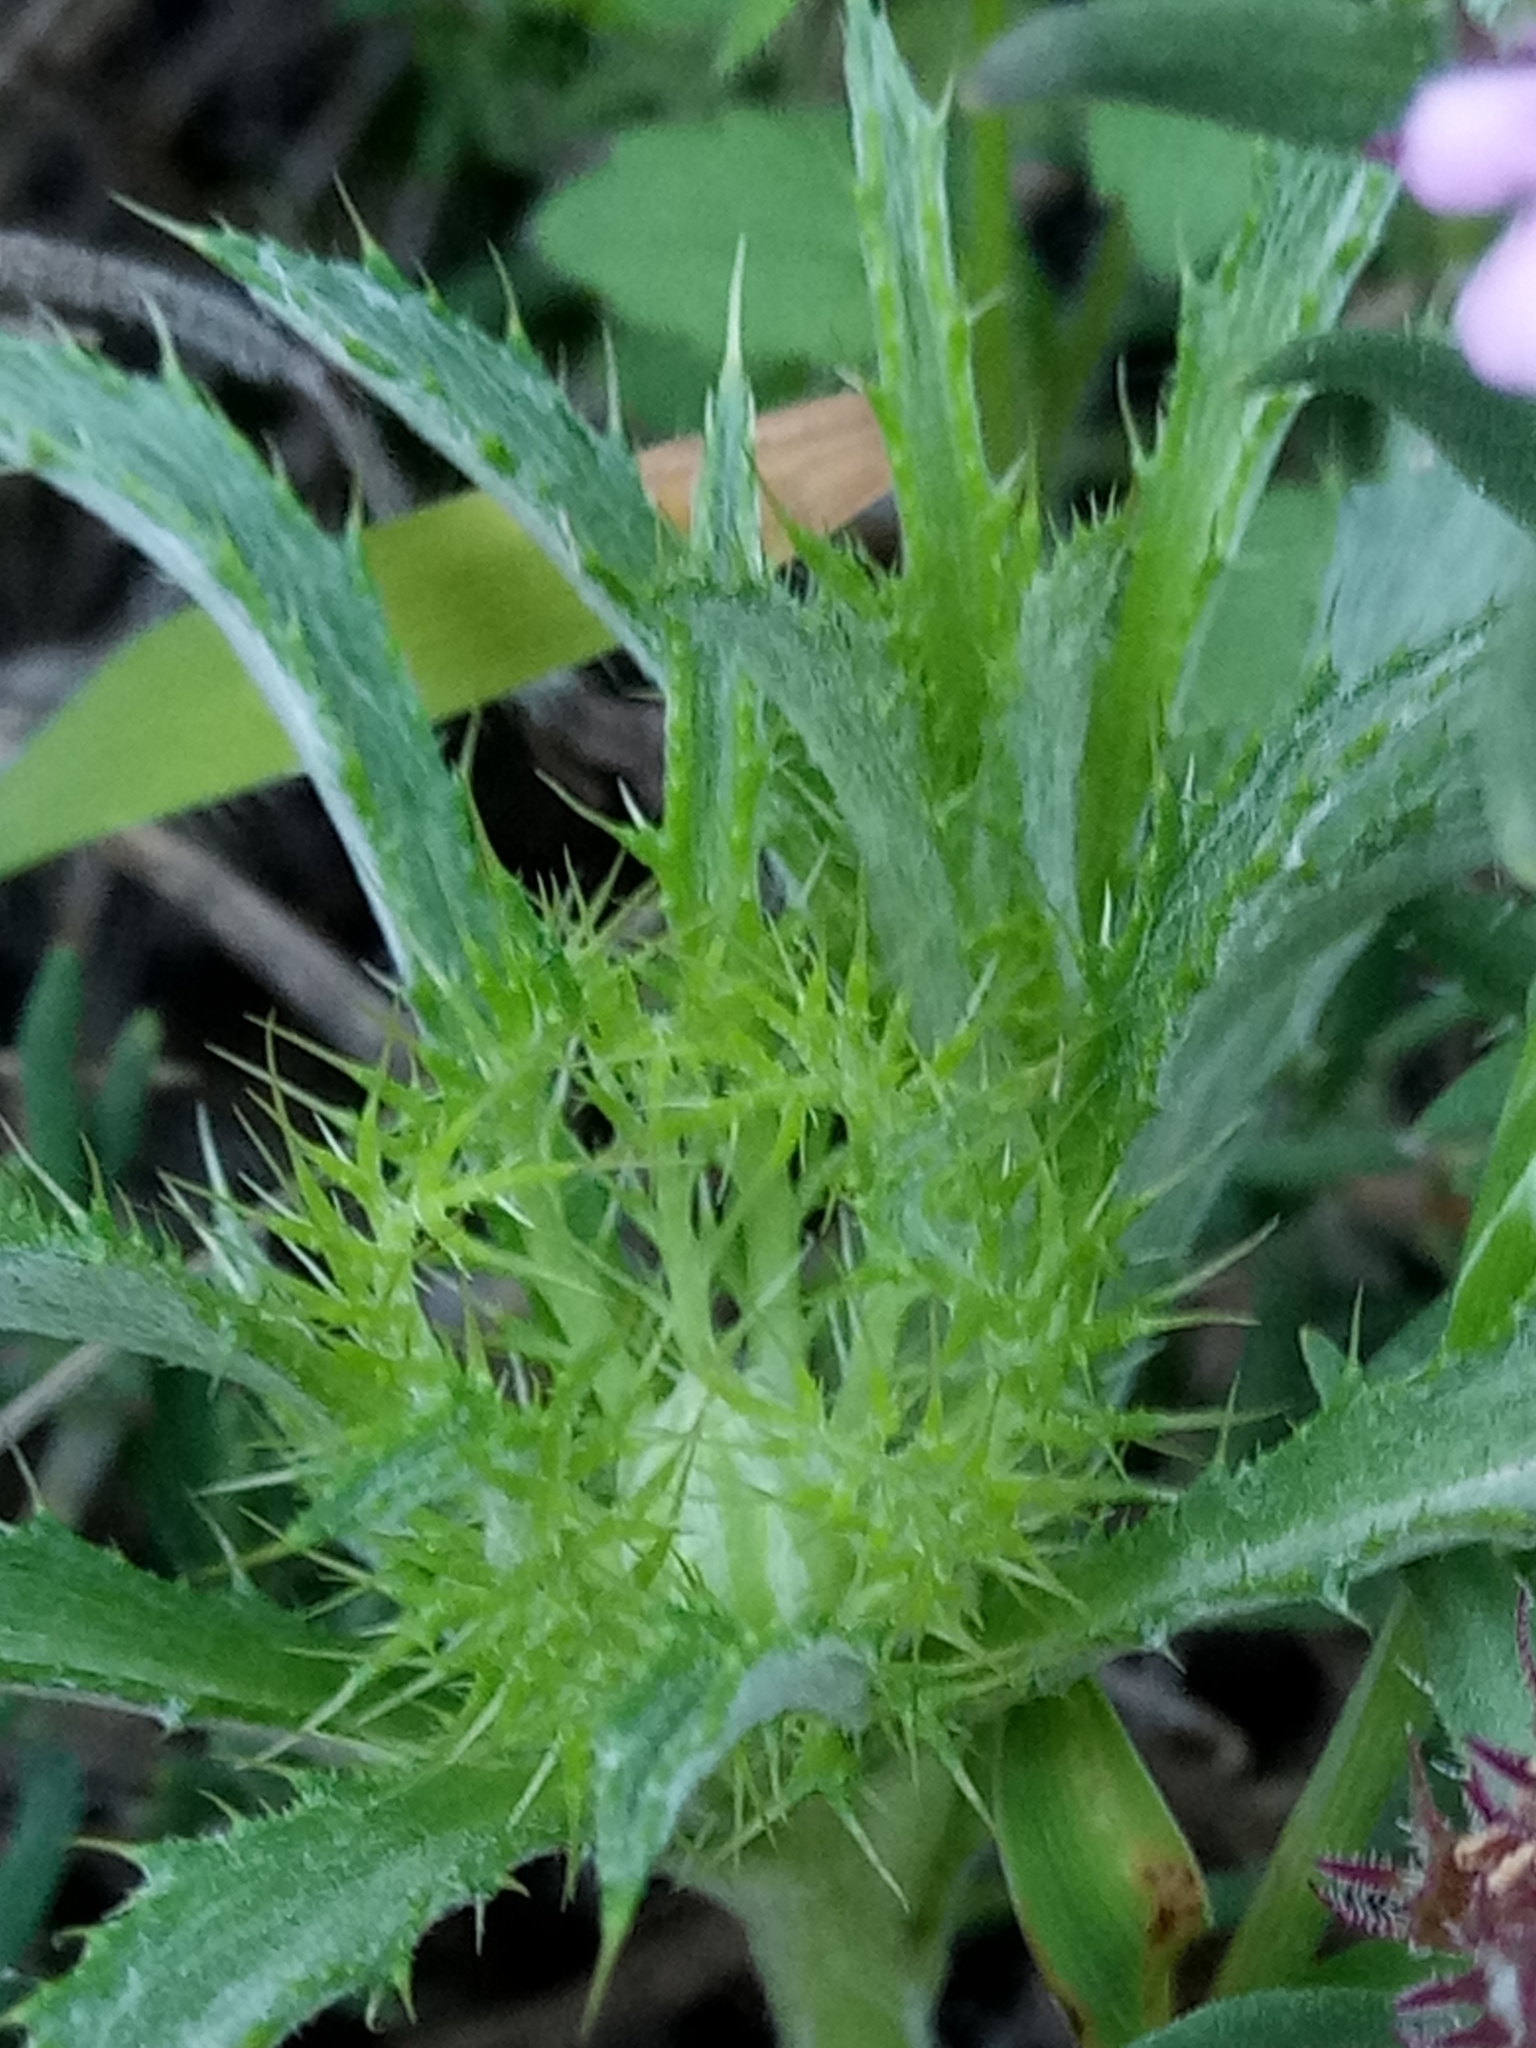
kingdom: Plantae
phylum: Tracheophyta
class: Magnoliopsida
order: Asterales
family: Asteraceae
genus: Atractylis
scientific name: Atractylis cancellata
